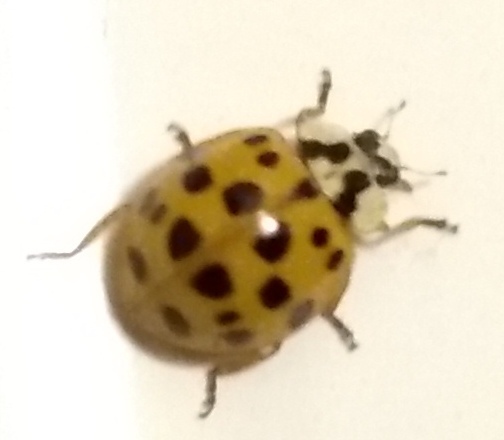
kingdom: Animalia
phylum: Arthropoda
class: Insecta
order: Coleoptera
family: Coccinellidae
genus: Harmonia
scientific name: Harmonia axyridis
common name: Harlequin ladybird
